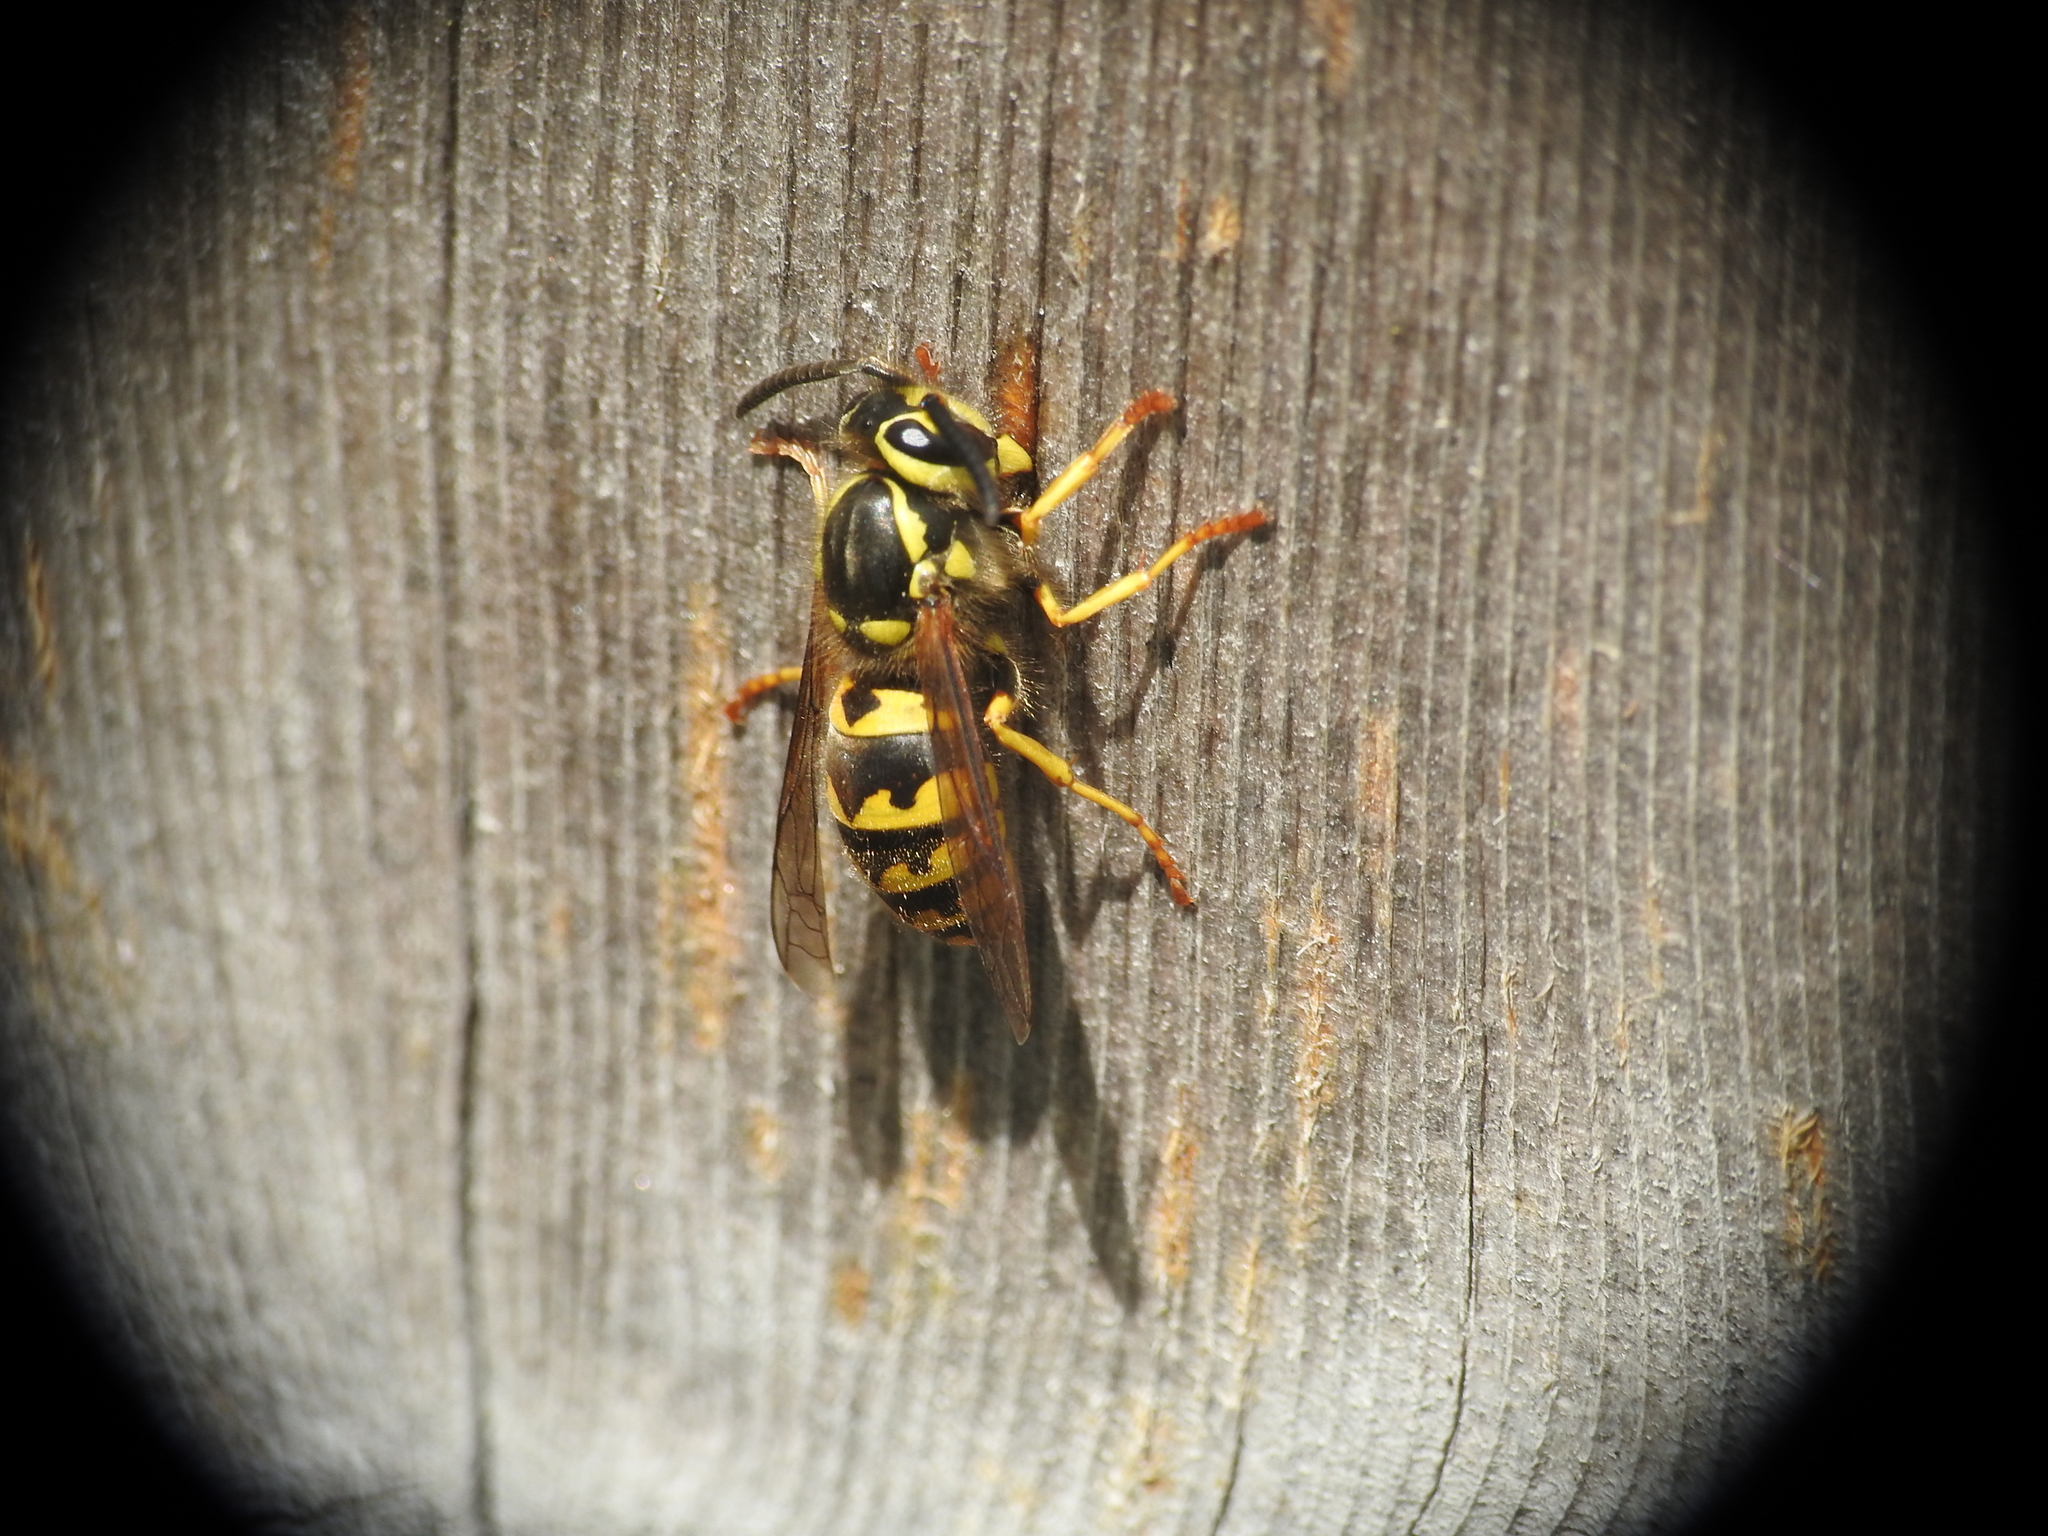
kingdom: Animalia
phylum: Arthropoda
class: Insecta
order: Hymenoptera
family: Vespidae
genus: Vespula
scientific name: Vespula pensylvanica
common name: Western yellowjacket
